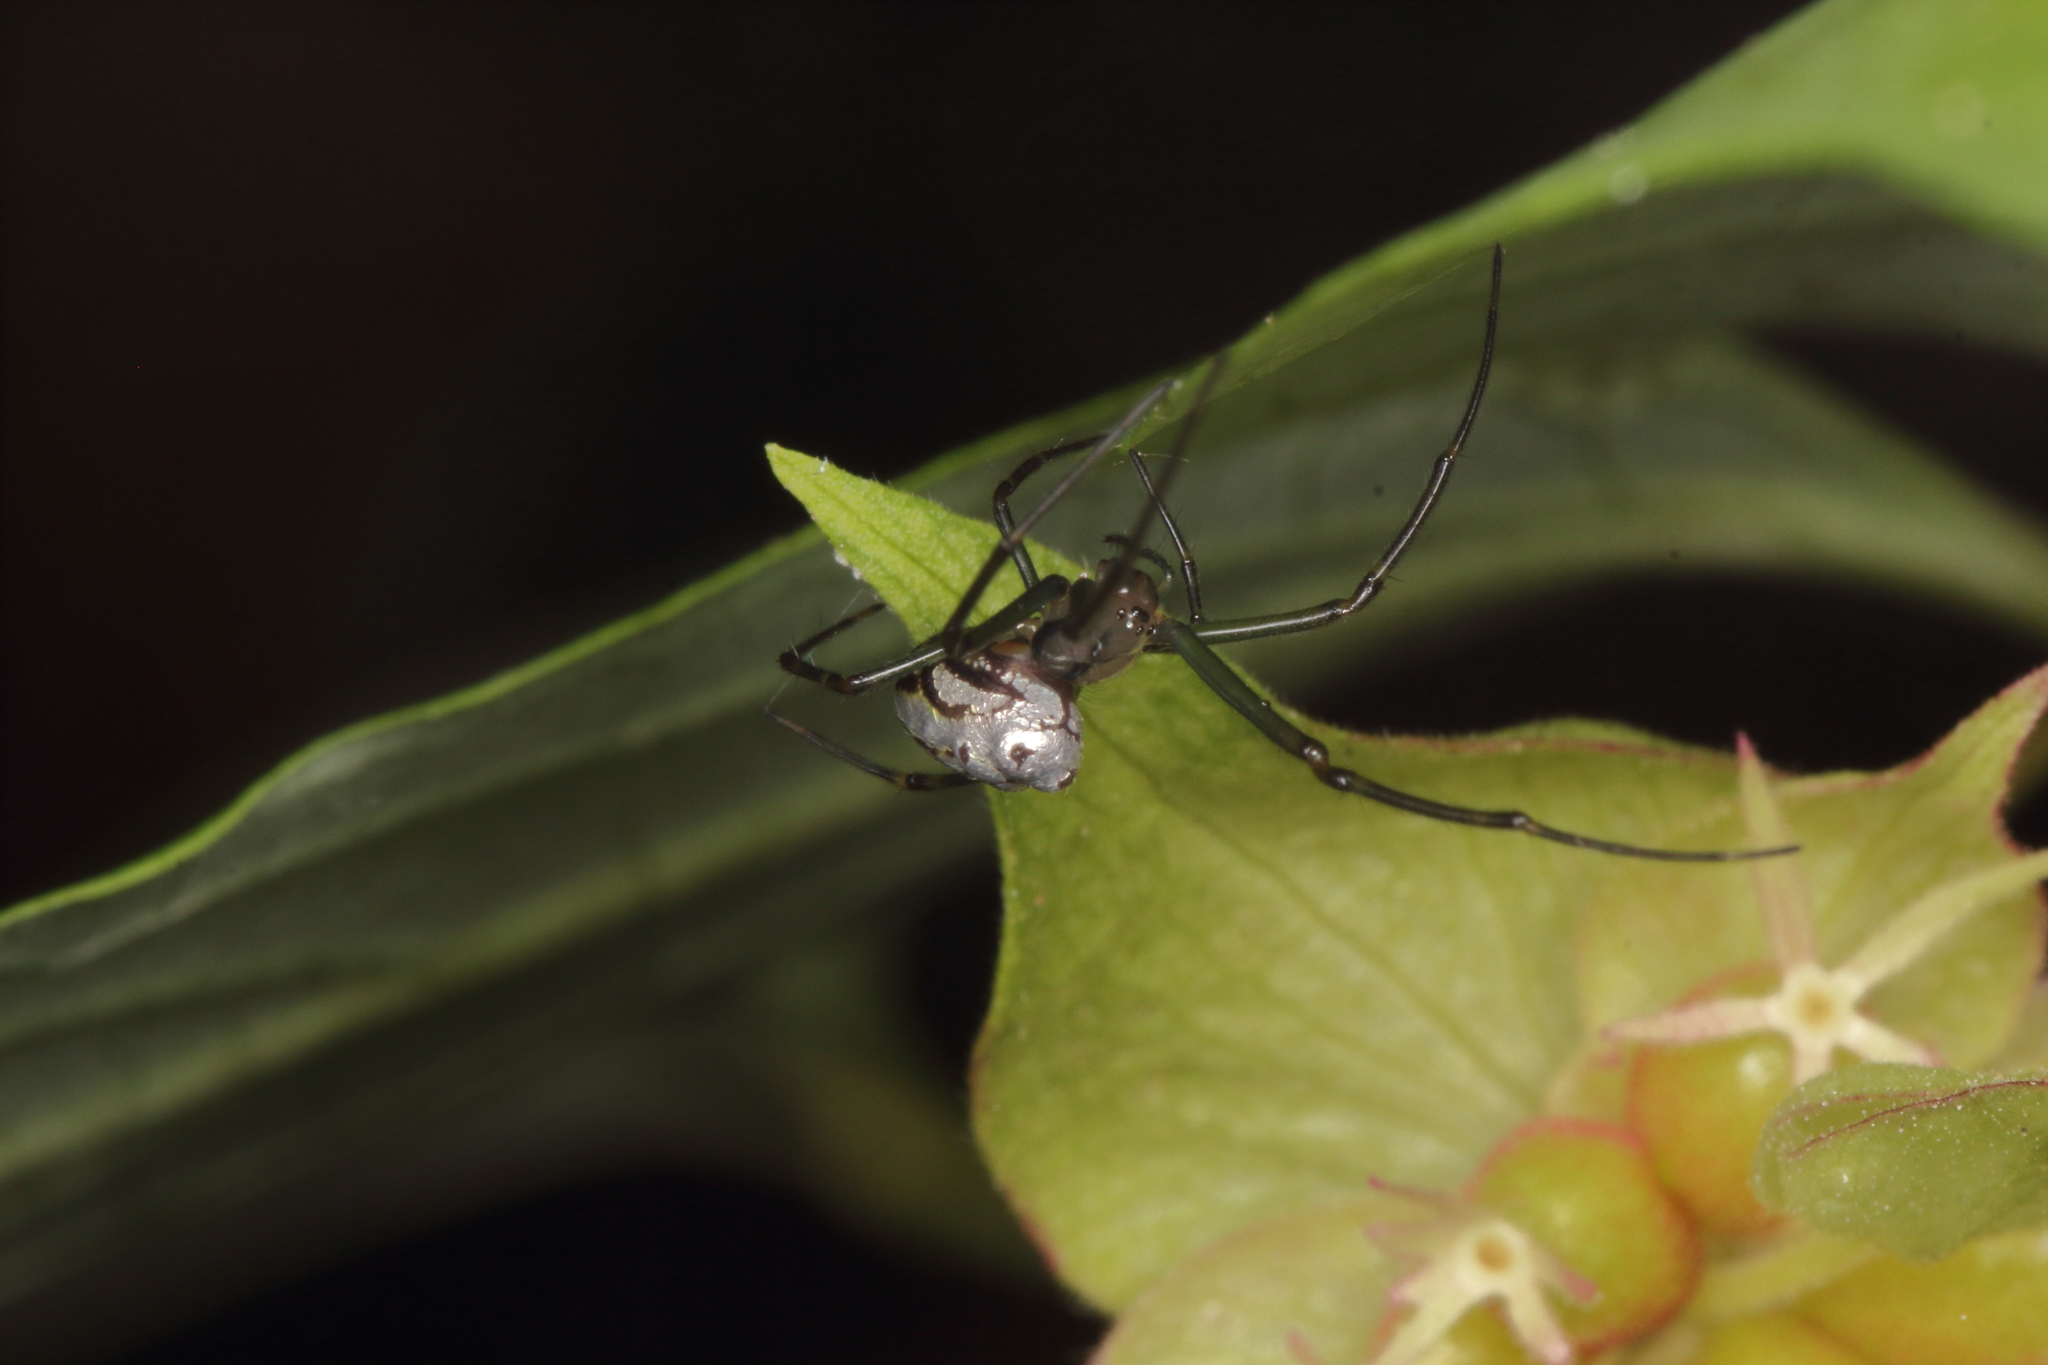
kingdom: Animalia
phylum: Arthropoda
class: Arachnida
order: Araneae
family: Tetragnathidae
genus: Leucauge
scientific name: Leucauge dromedaria
